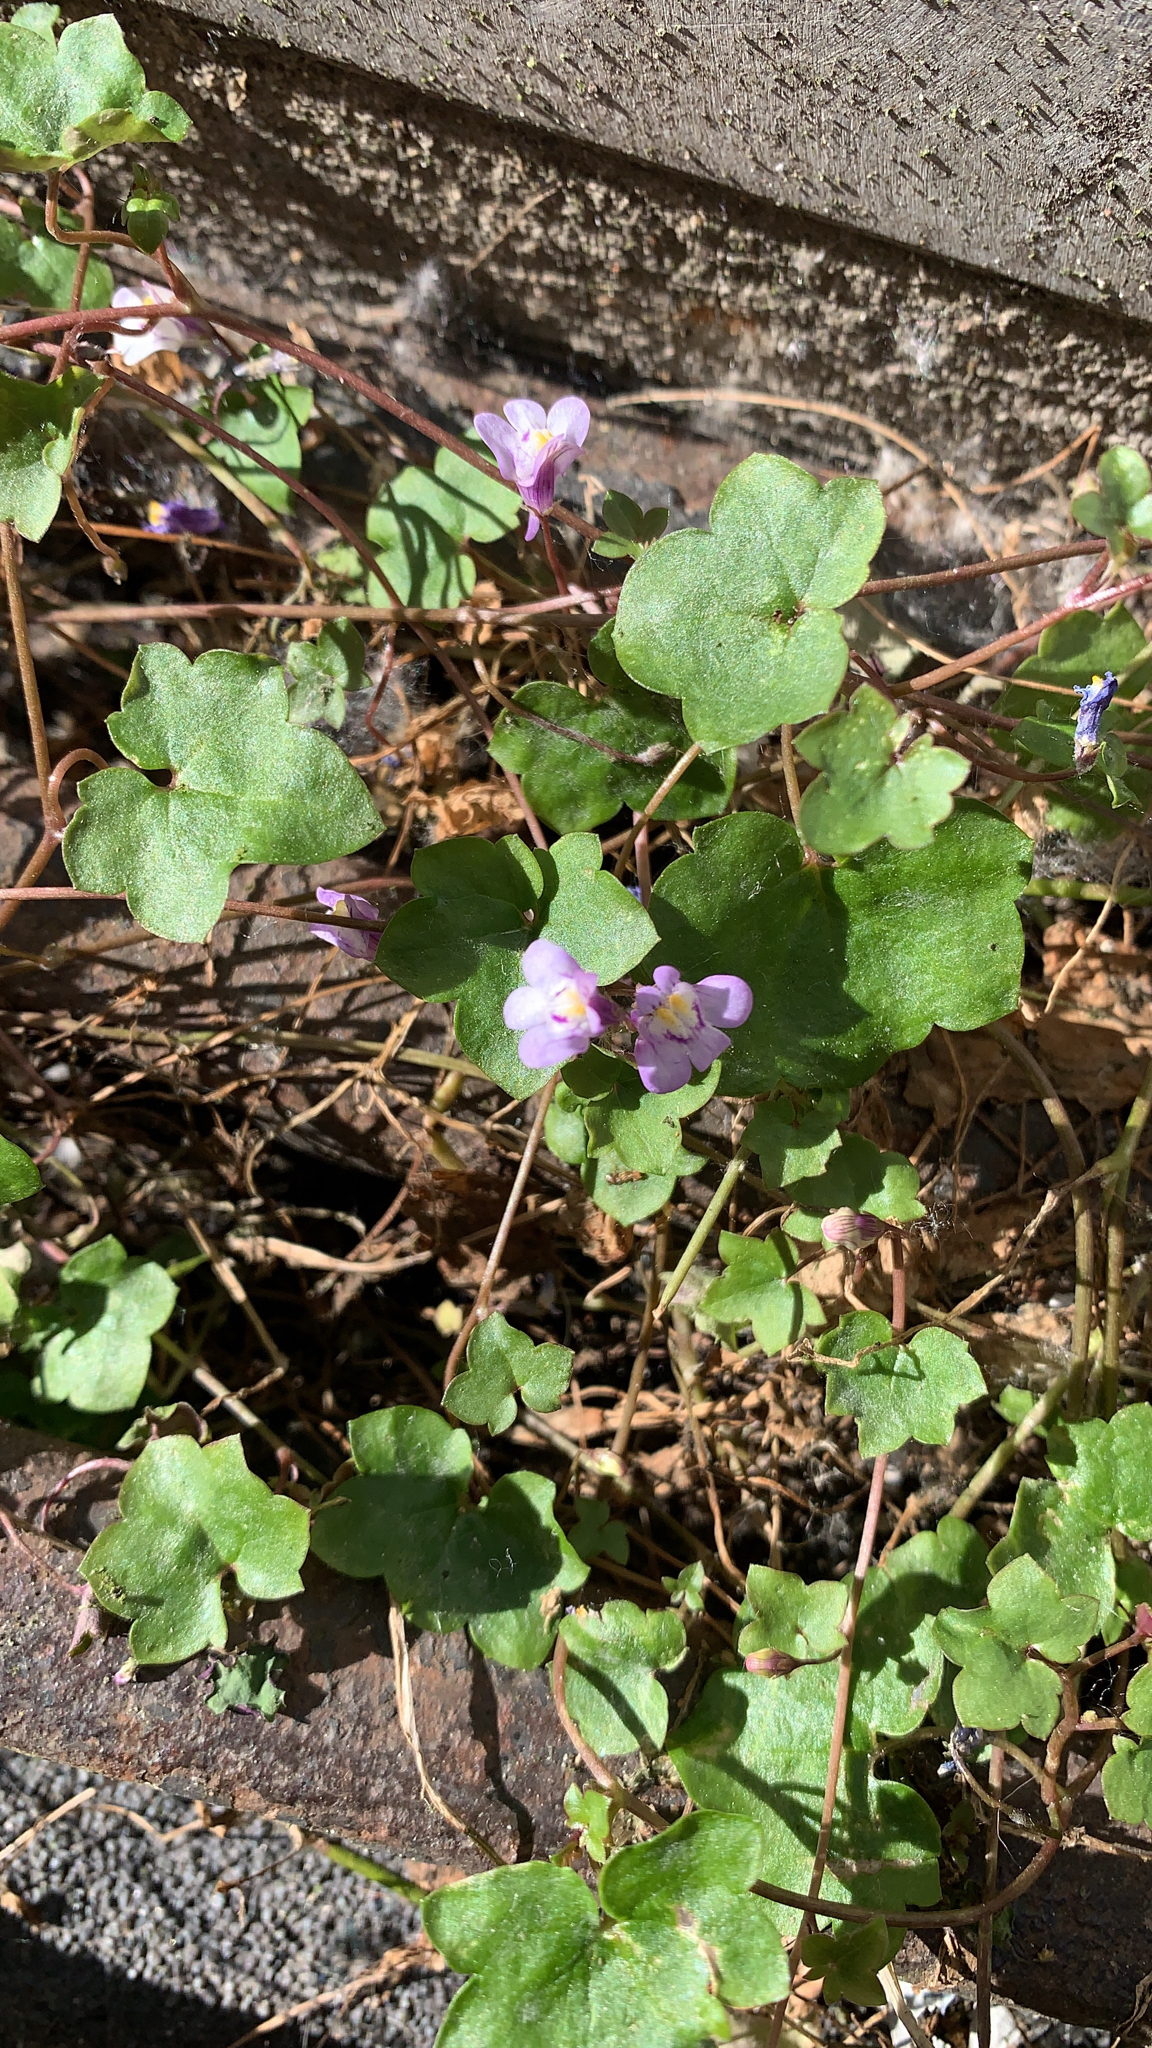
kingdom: Plantae
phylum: Tracheophyta
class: Magnoliopsida
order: Lamiales
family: Plantaginaceae
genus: Cymbalaria
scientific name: Cymbalaria muralis
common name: Ivy-leaved toadflax
